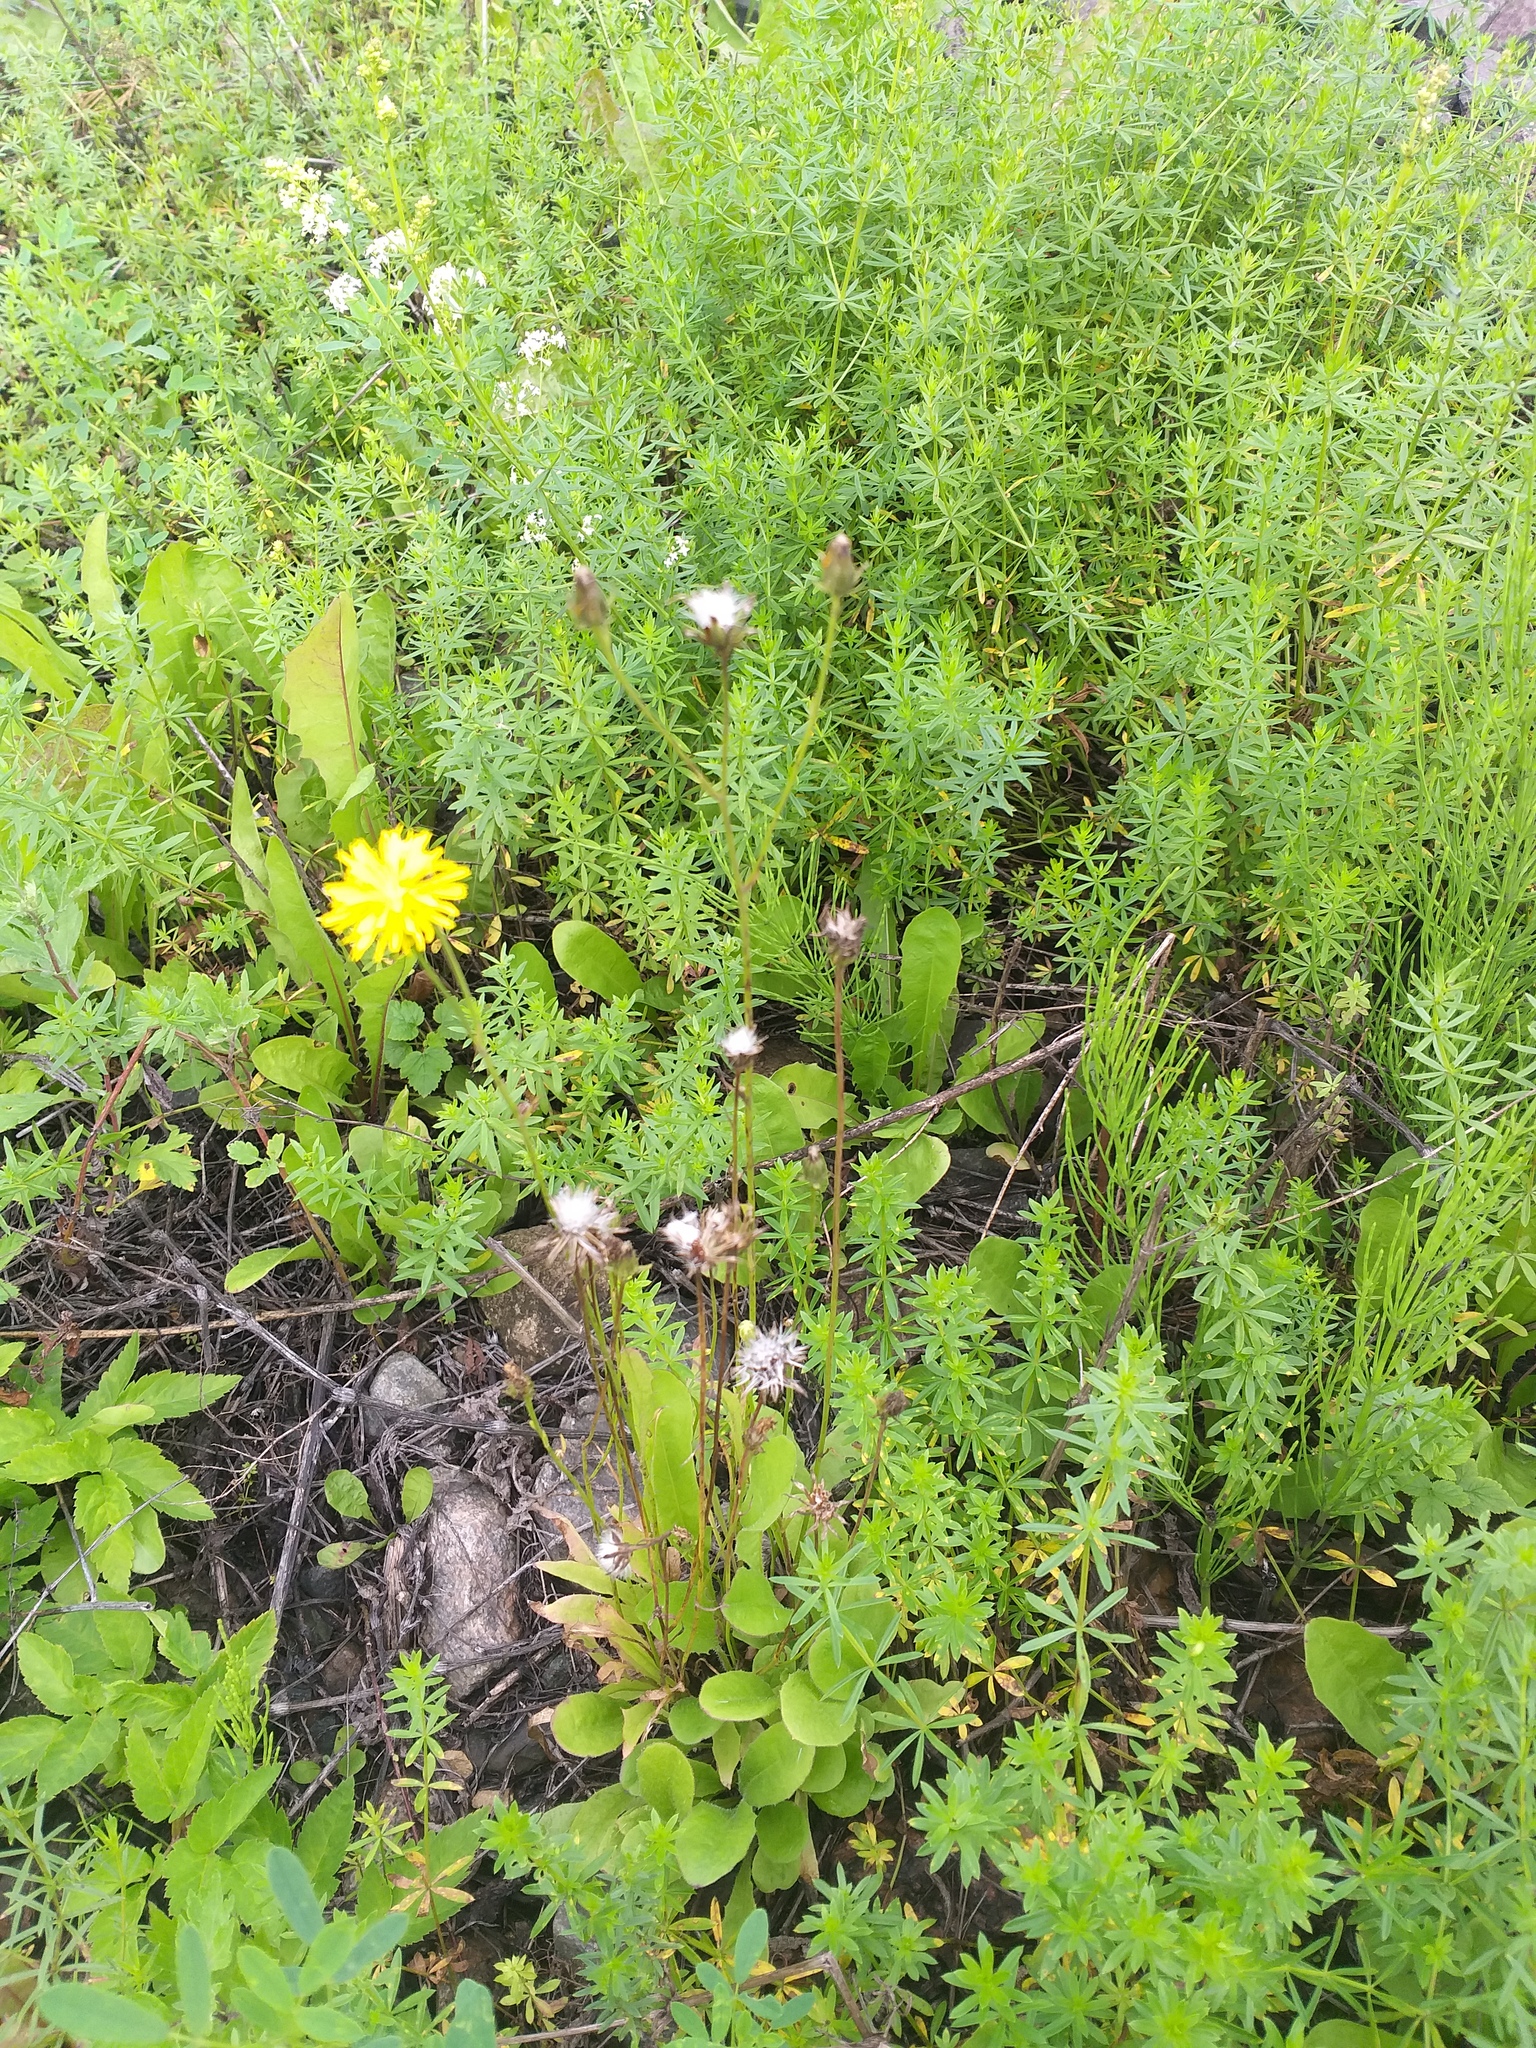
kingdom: Plantae
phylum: Tracheophyta
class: Magnoliopsida
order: Asterales
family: Asteraceae
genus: Crepis
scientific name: Crepis biennis
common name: Rough hawk's-beard
